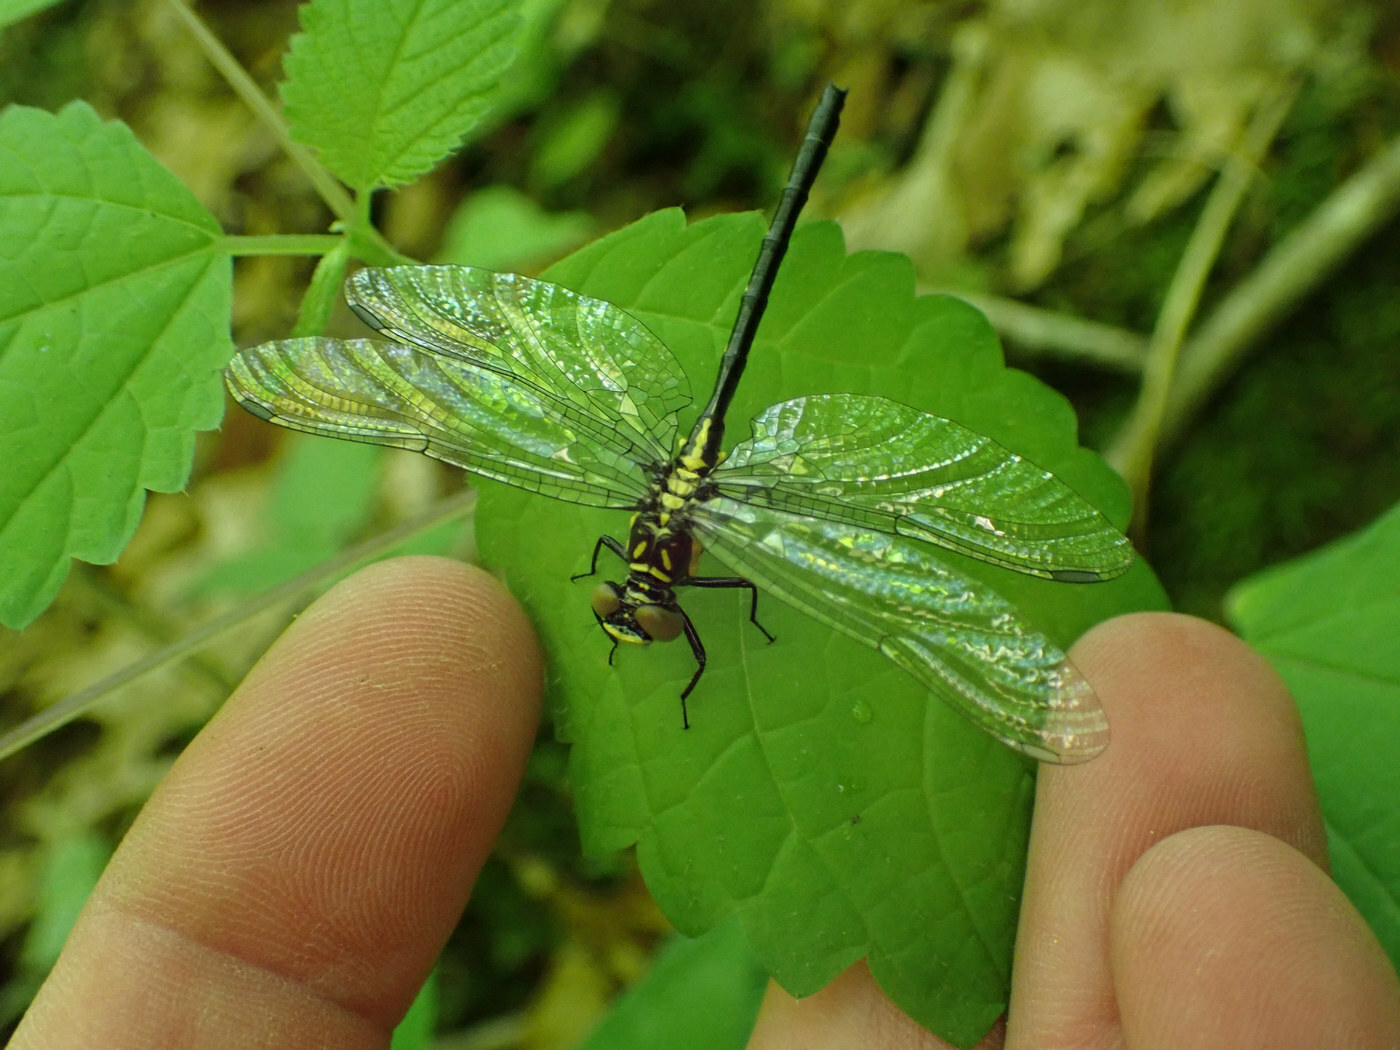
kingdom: Animalia
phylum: Arthropoda
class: Insecta
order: Odonata
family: Gomphidae
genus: Lanthus
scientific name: Lanthus vernalis
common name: Southern pygmy clubtail
